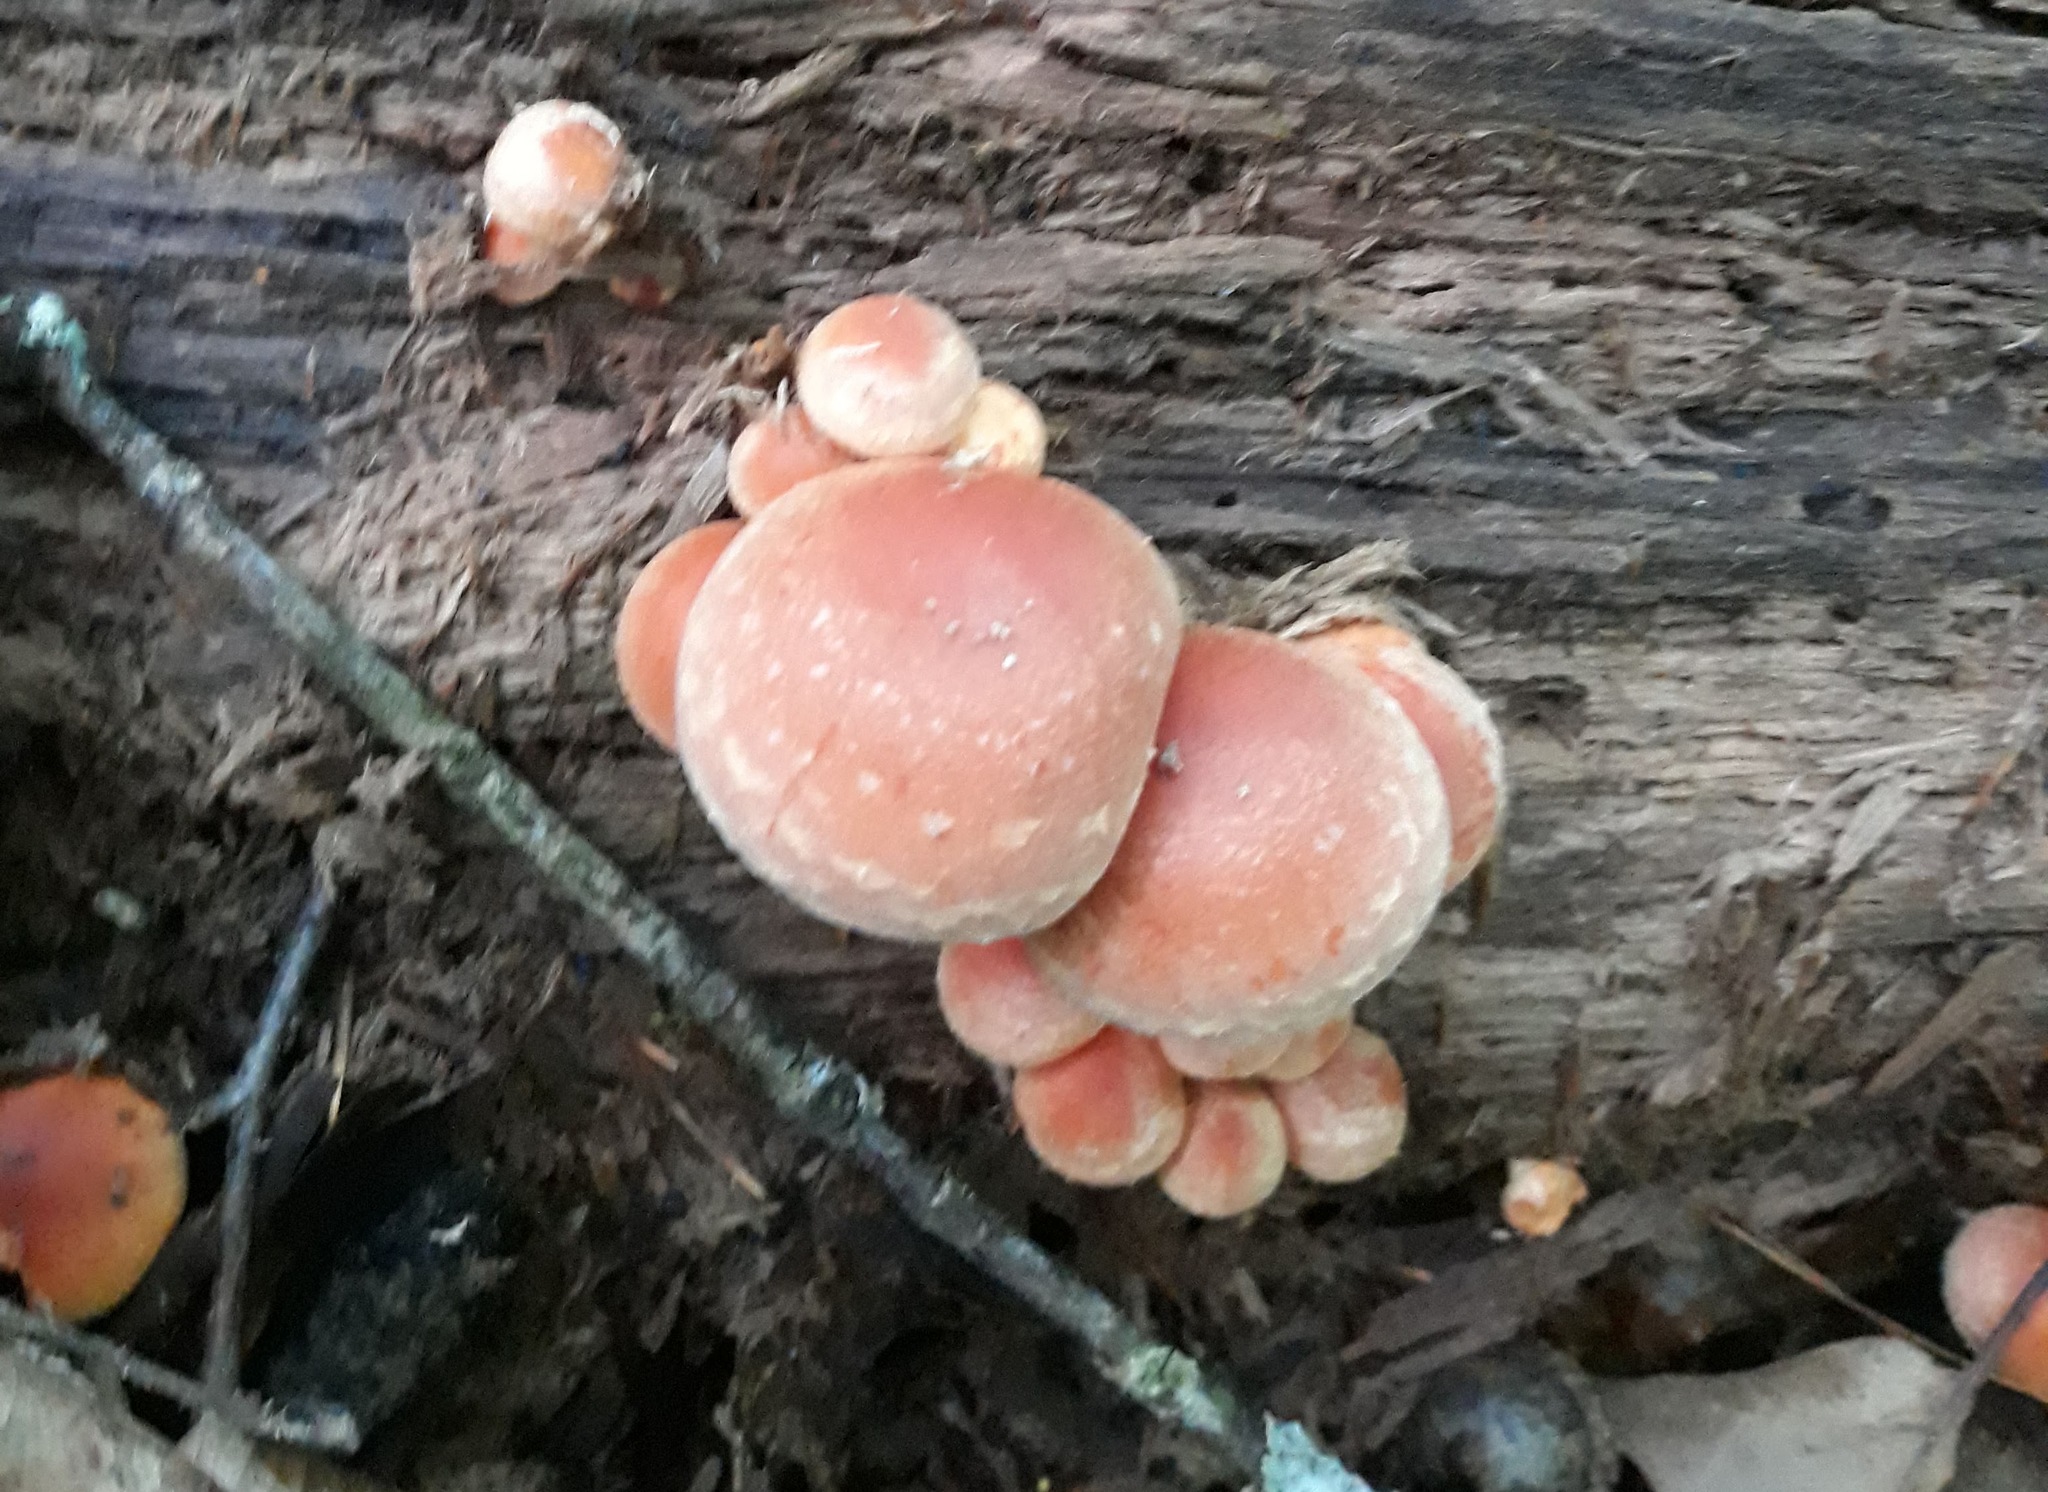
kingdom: Fungi
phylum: Basidiomycota
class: Agaricomycetes
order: Agaricales
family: Strophariaceae
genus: Hypholoma
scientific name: Hypholoma lateritium
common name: Brick caps
